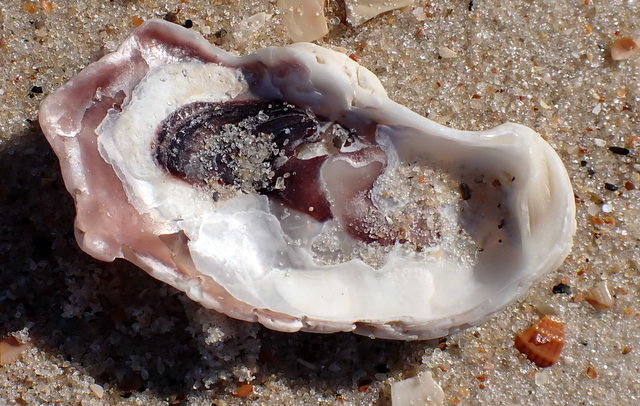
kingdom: Animalia
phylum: Mollusca
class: Bivalvia
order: Ostreida
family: Ostreidae
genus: Crassostrea
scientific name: Crassostrea virginica
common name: American oyster
